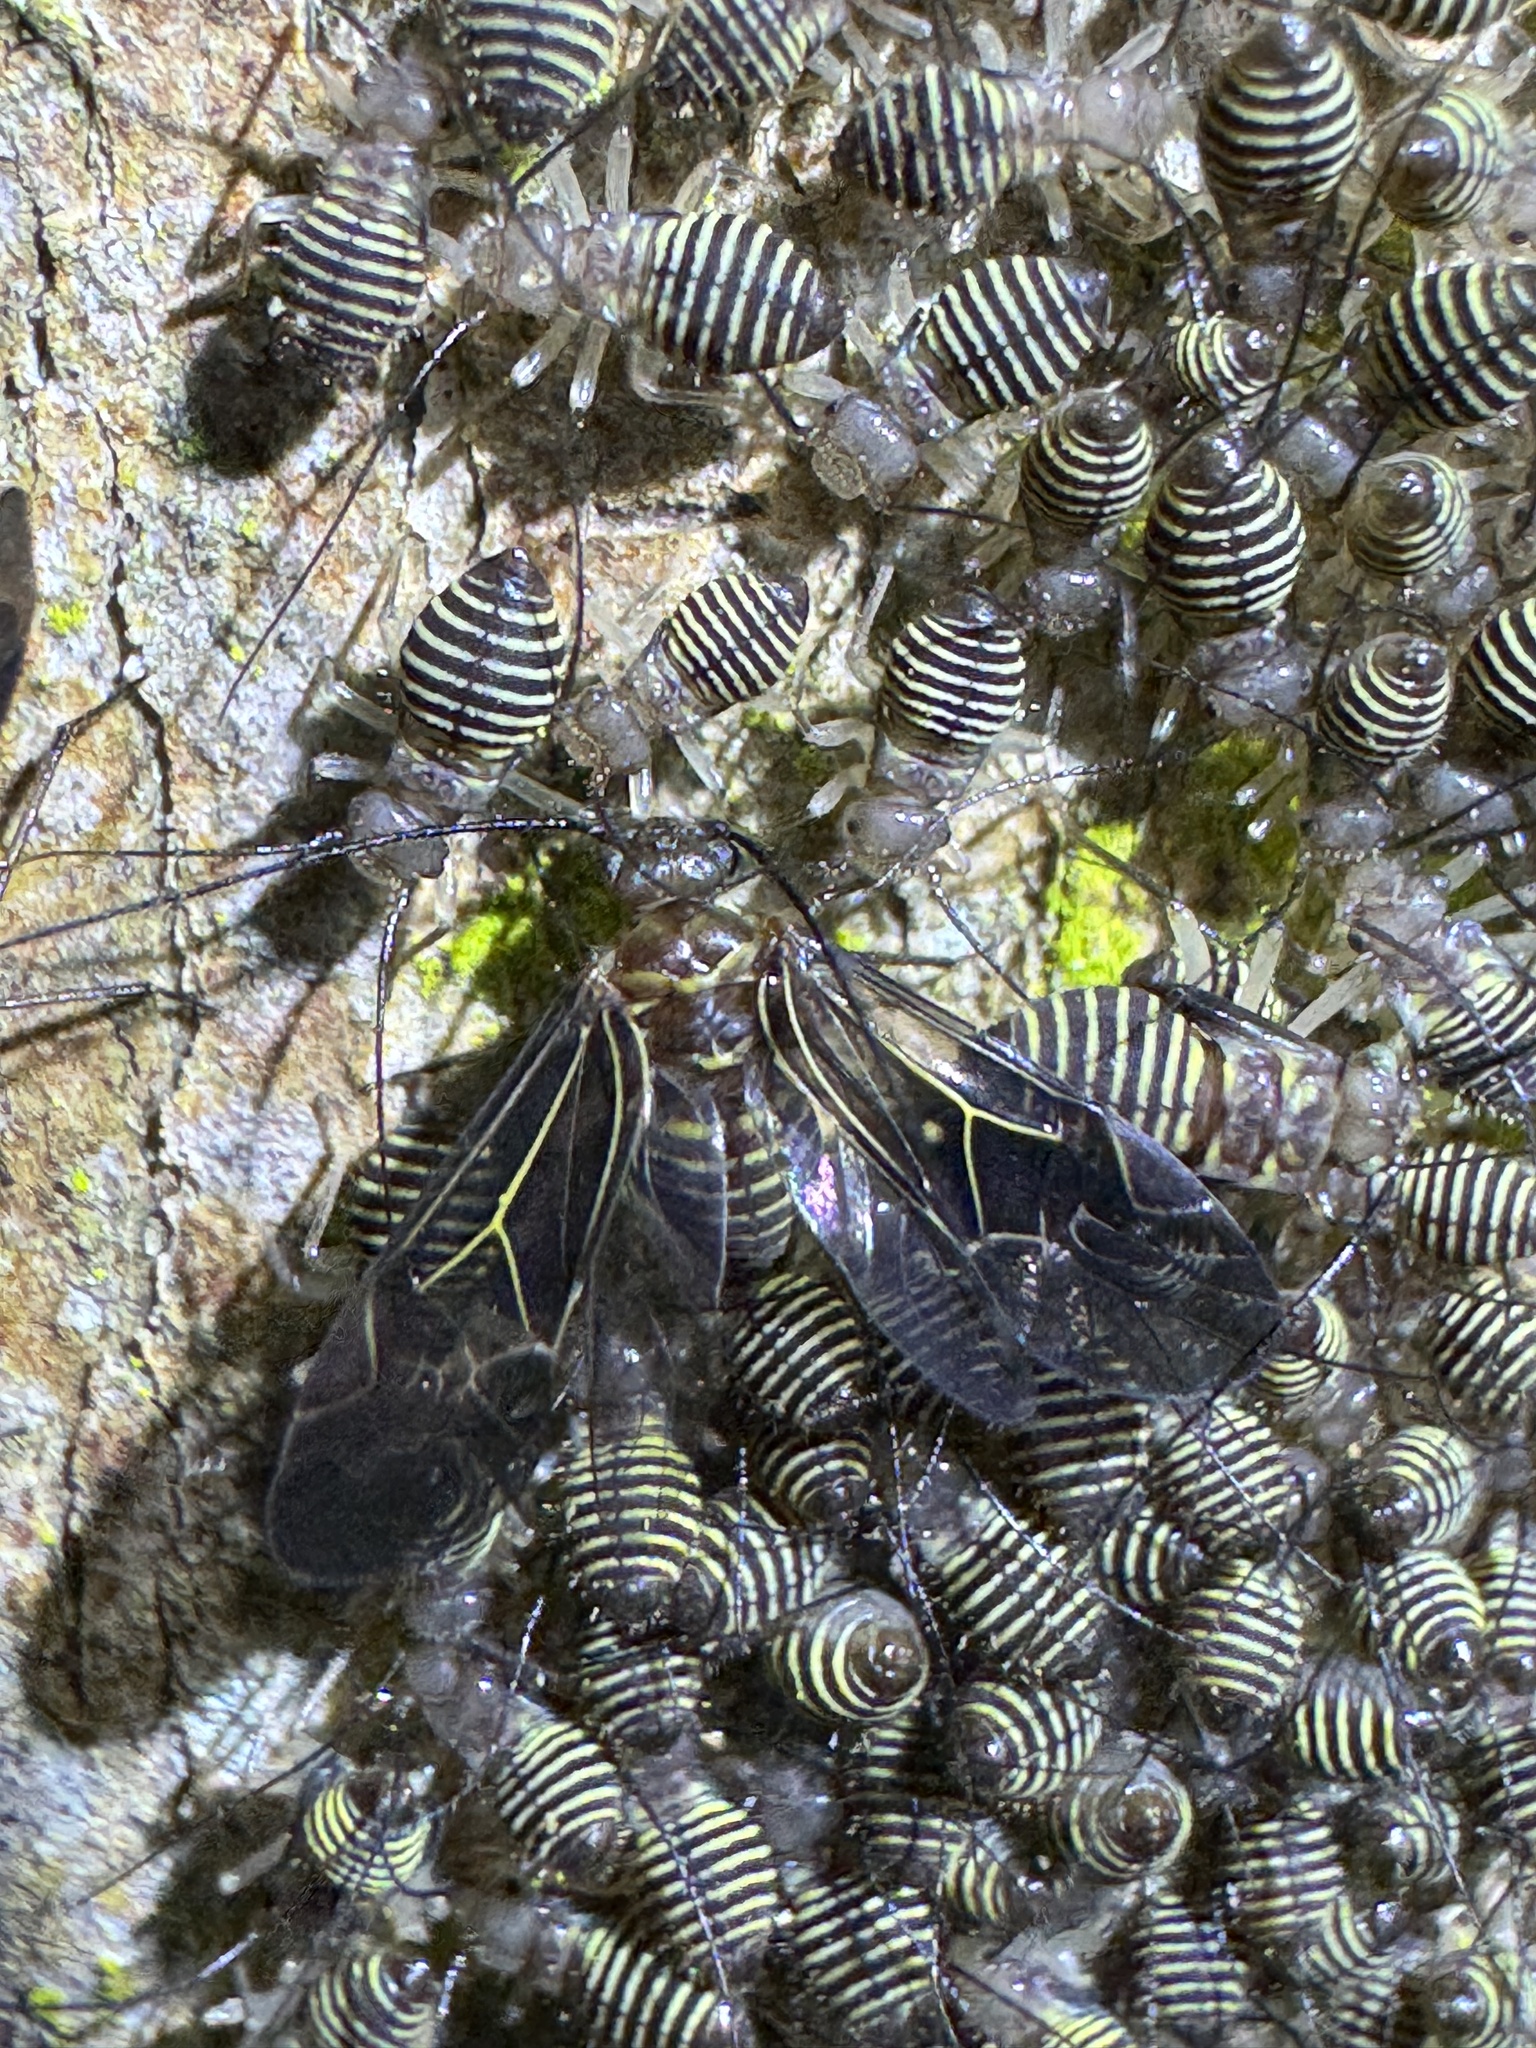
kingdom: Animalia
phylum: Arthropoda
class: Insecta
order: Psocodea
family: Psocidae
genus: Cerastipsocus
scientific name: Cerastipsocus venosus
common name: Tree cattle
